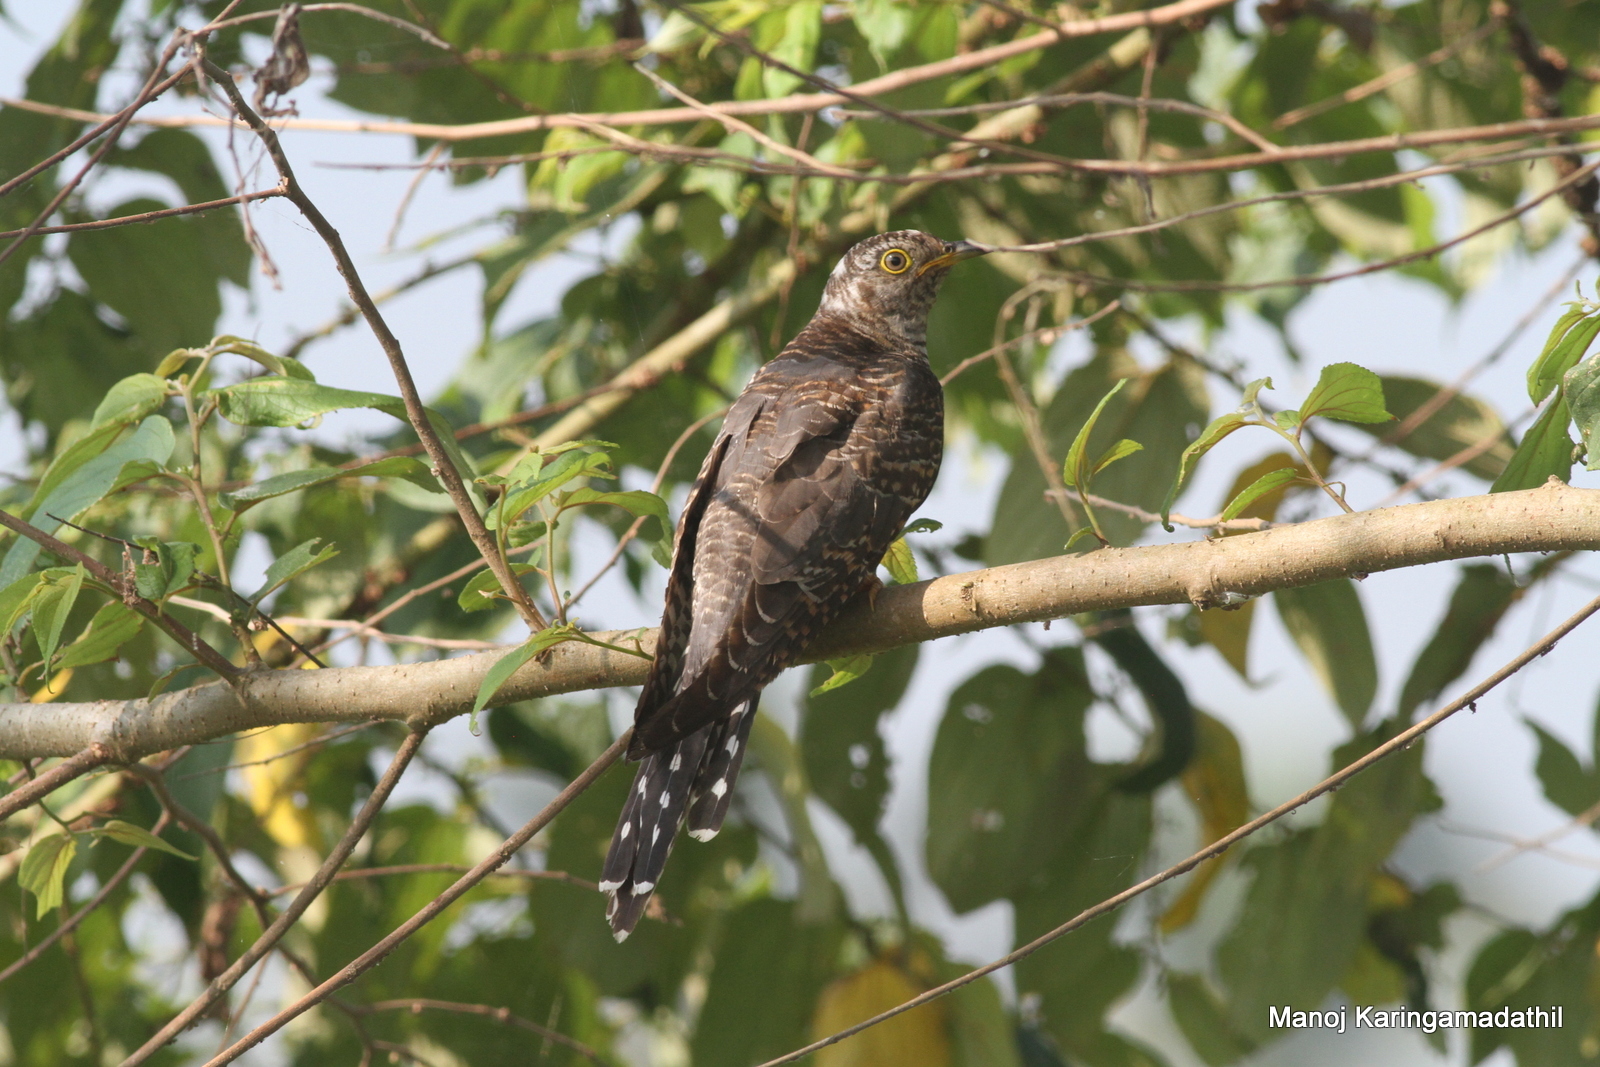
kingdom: Animalia
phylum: Chordata
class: Aves
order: Cuculiformes
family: Cuculidae
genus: Cuculus
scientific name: Cuculus canorus
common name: Common cuckoo
